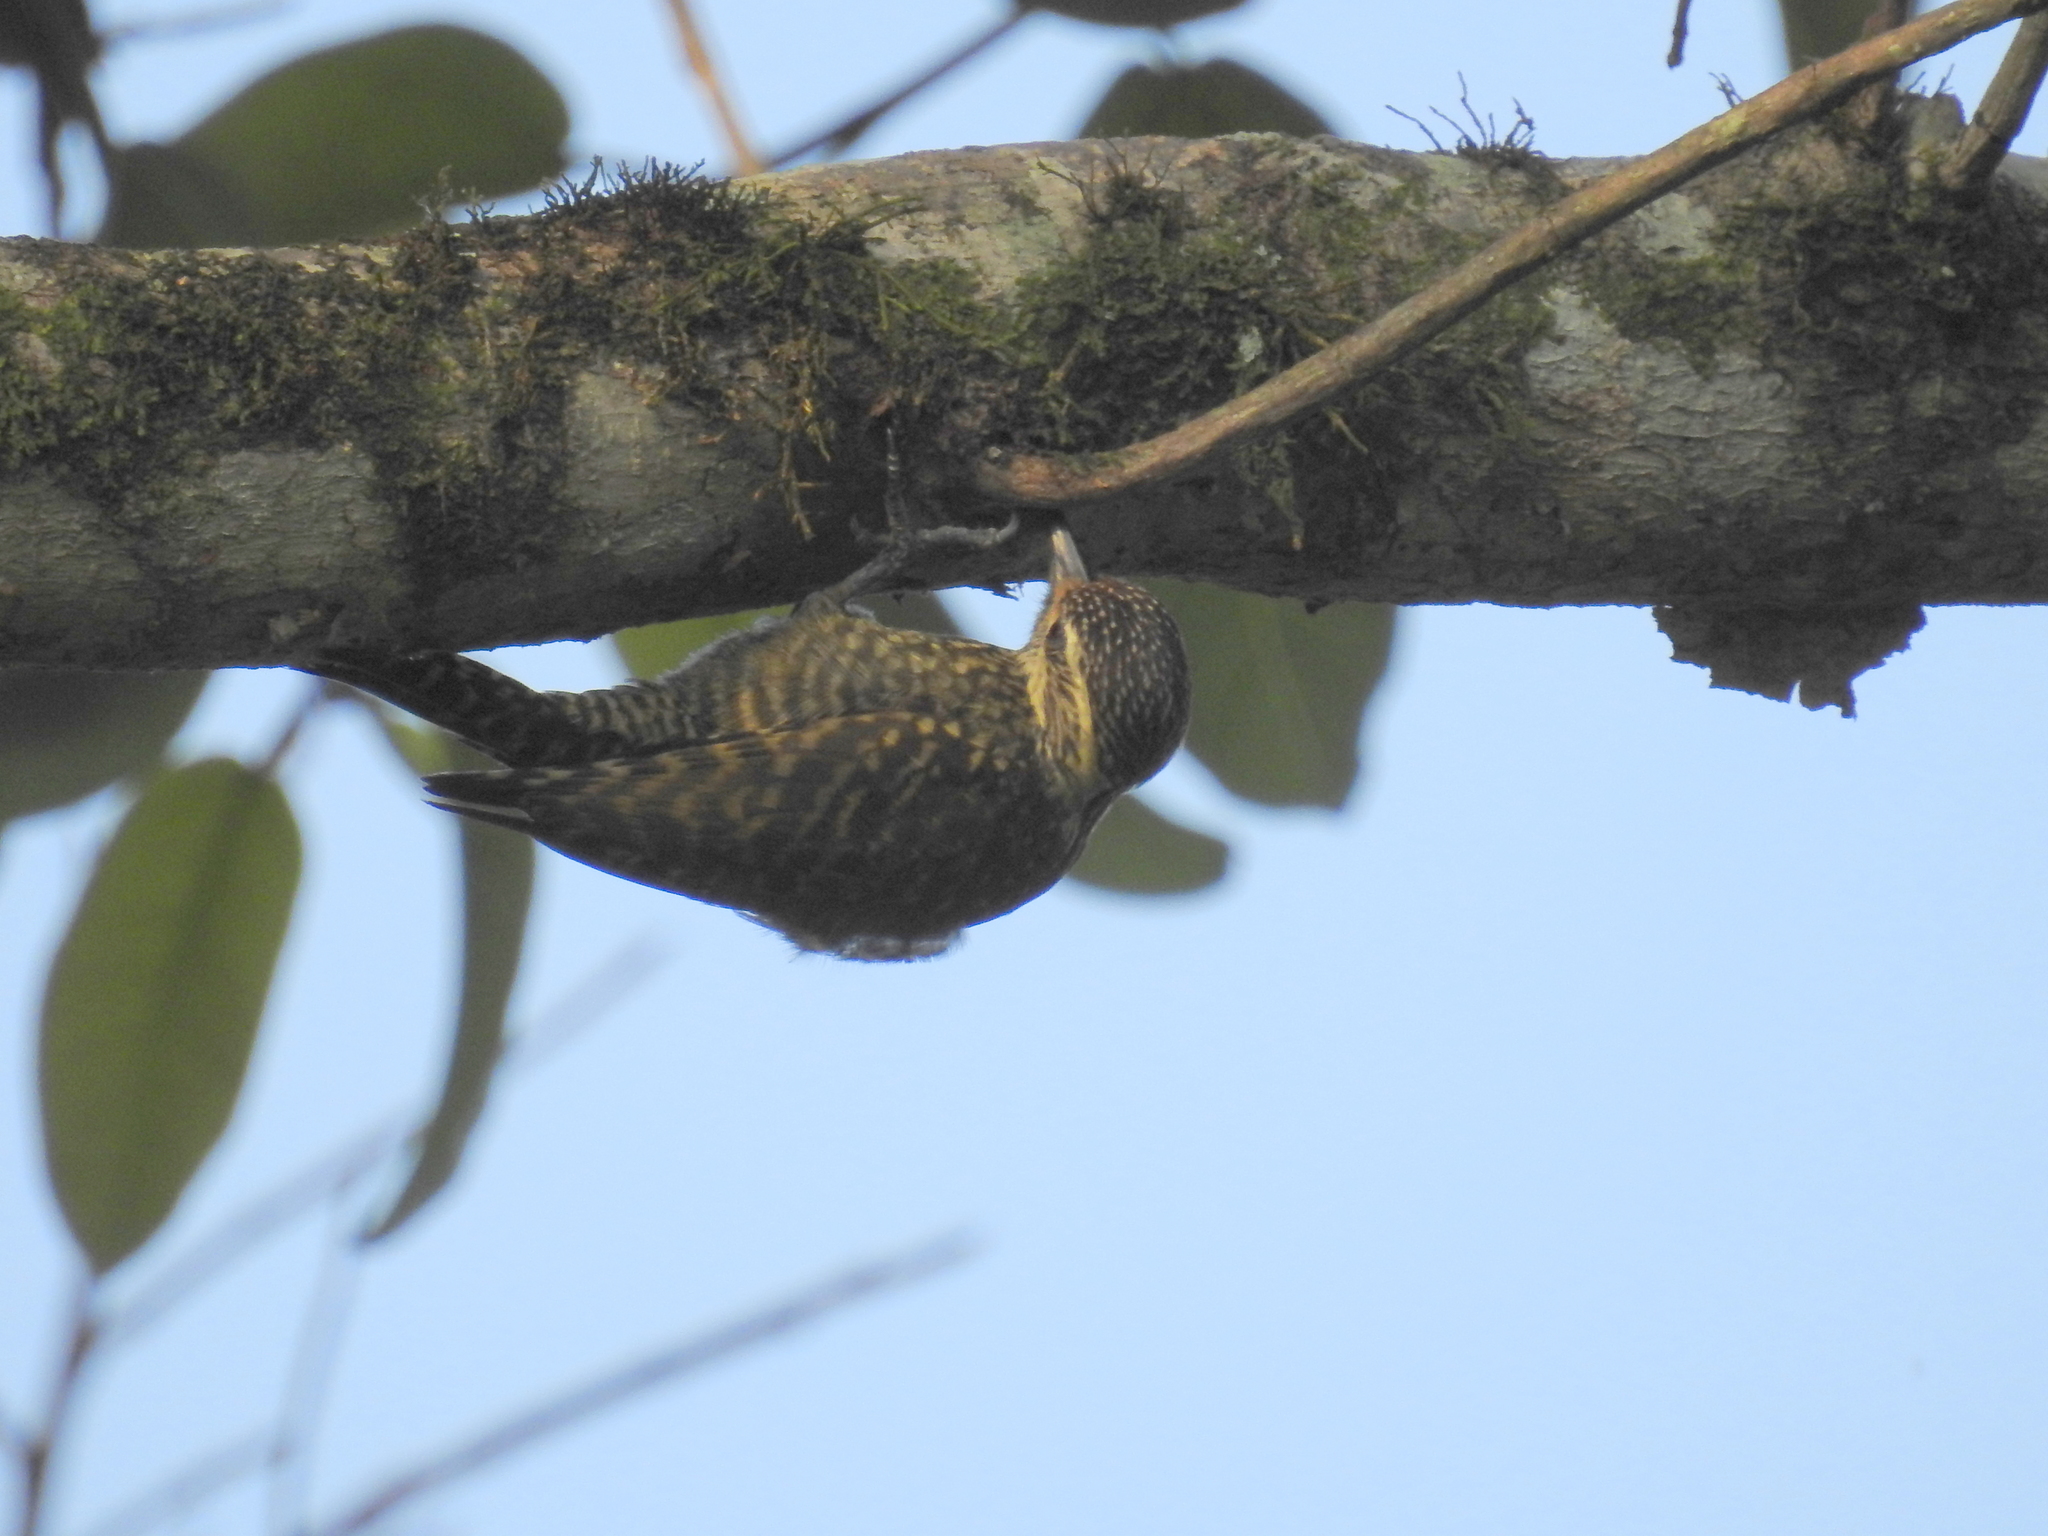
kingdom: Animalia
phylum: Chordata
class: Aves
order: Piciformes
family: Picidae
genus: Veniliornis
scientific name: Veniliornis spilogaster
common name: White-spotted woodpecker
